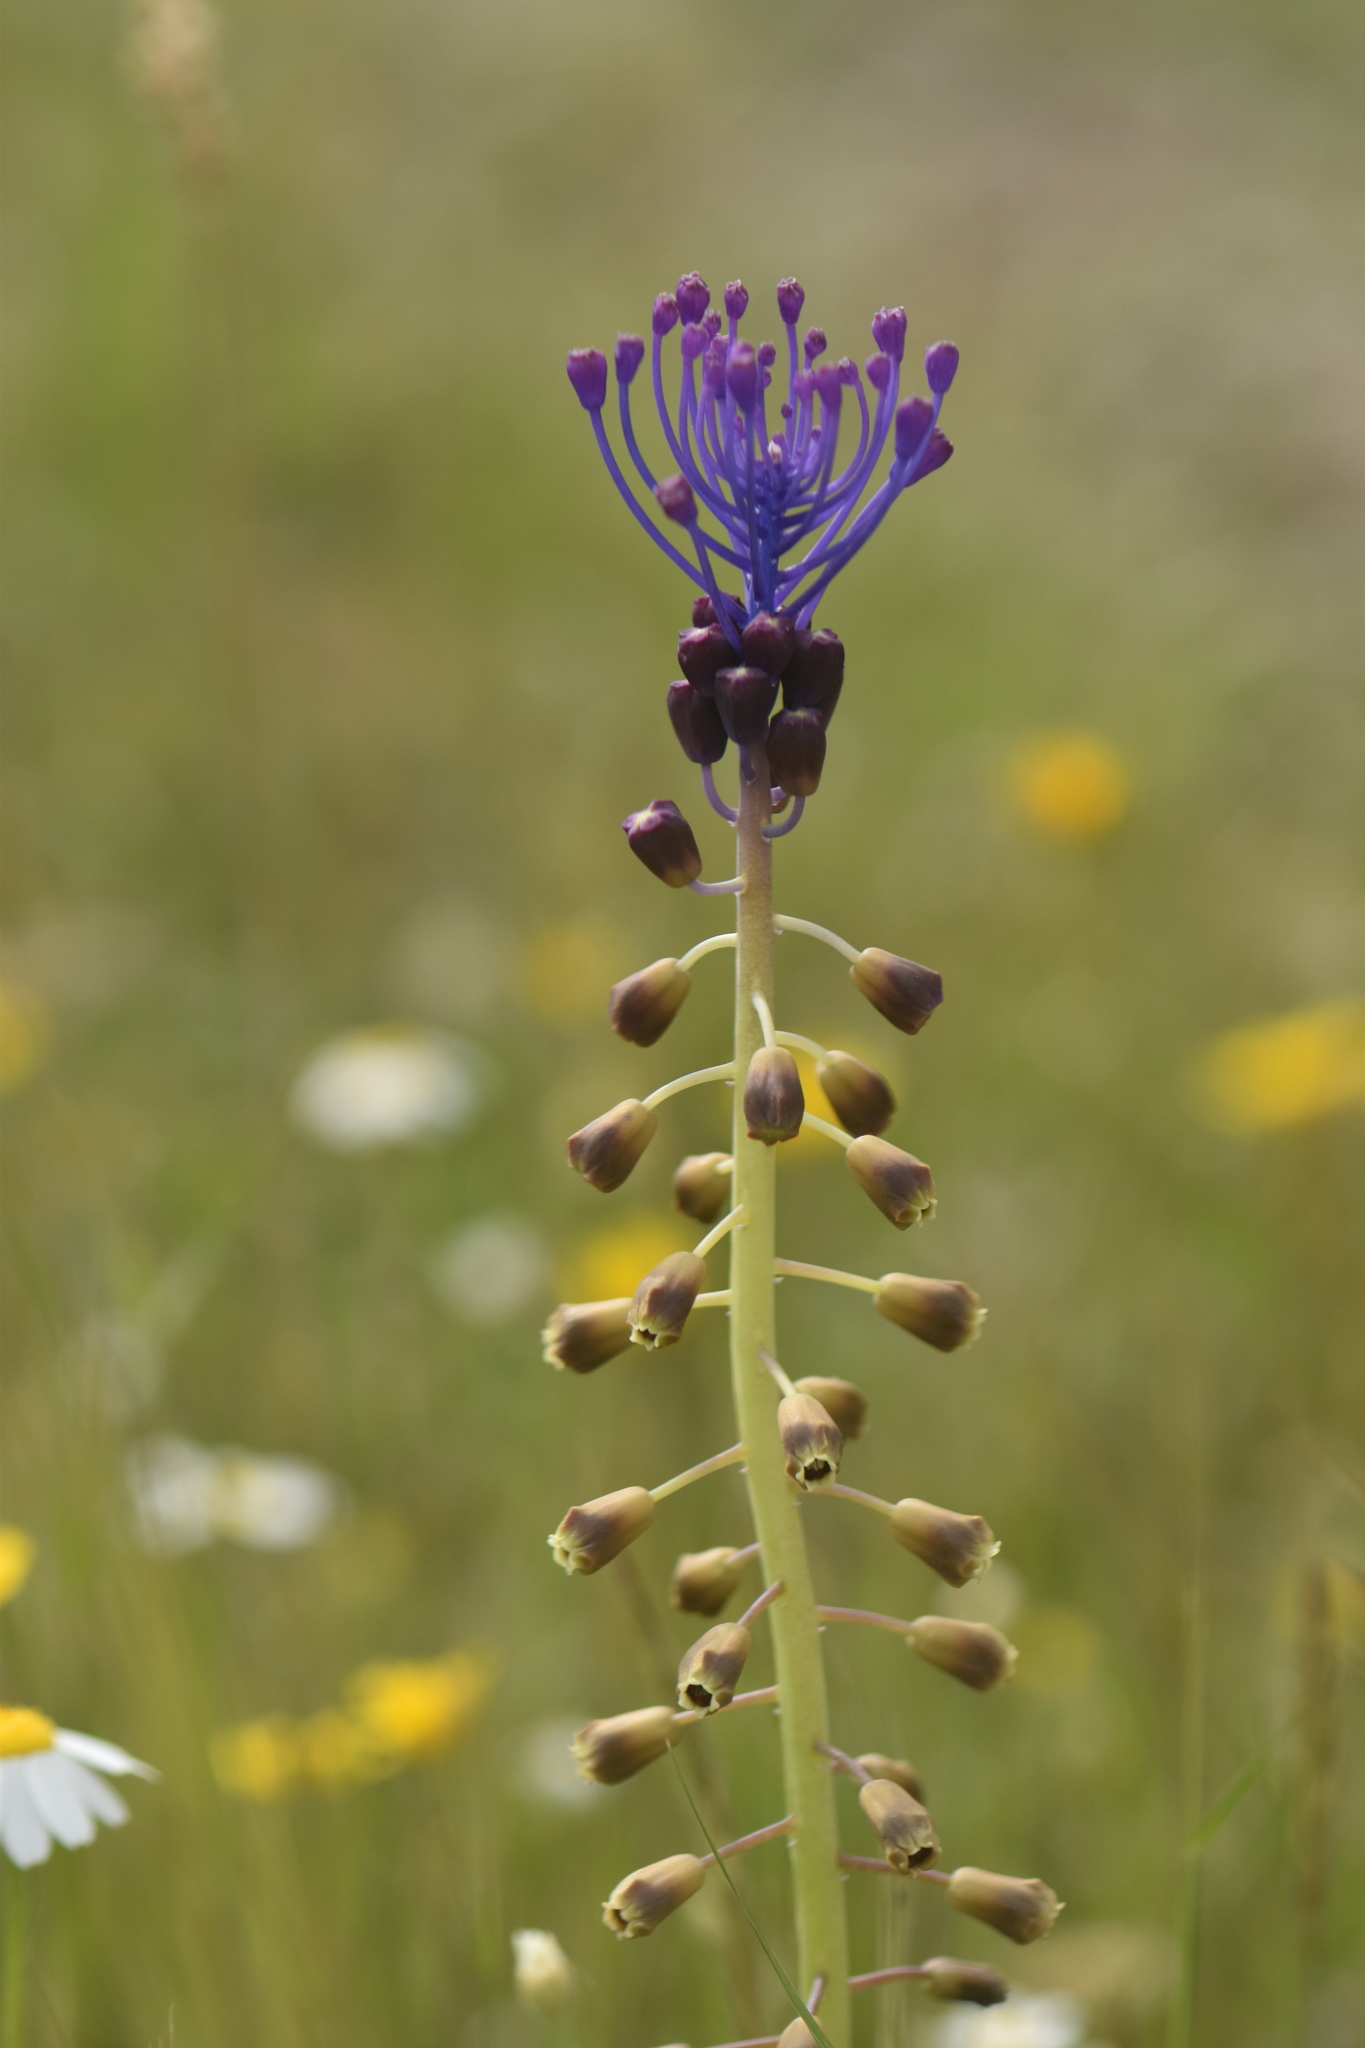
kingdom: Plantae
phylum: Tracheophyta
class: Liliopsida
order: Asparagales
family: Asparagaceae
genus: Muscari
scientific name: Muscari comosum
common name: Tassel hyacinth
